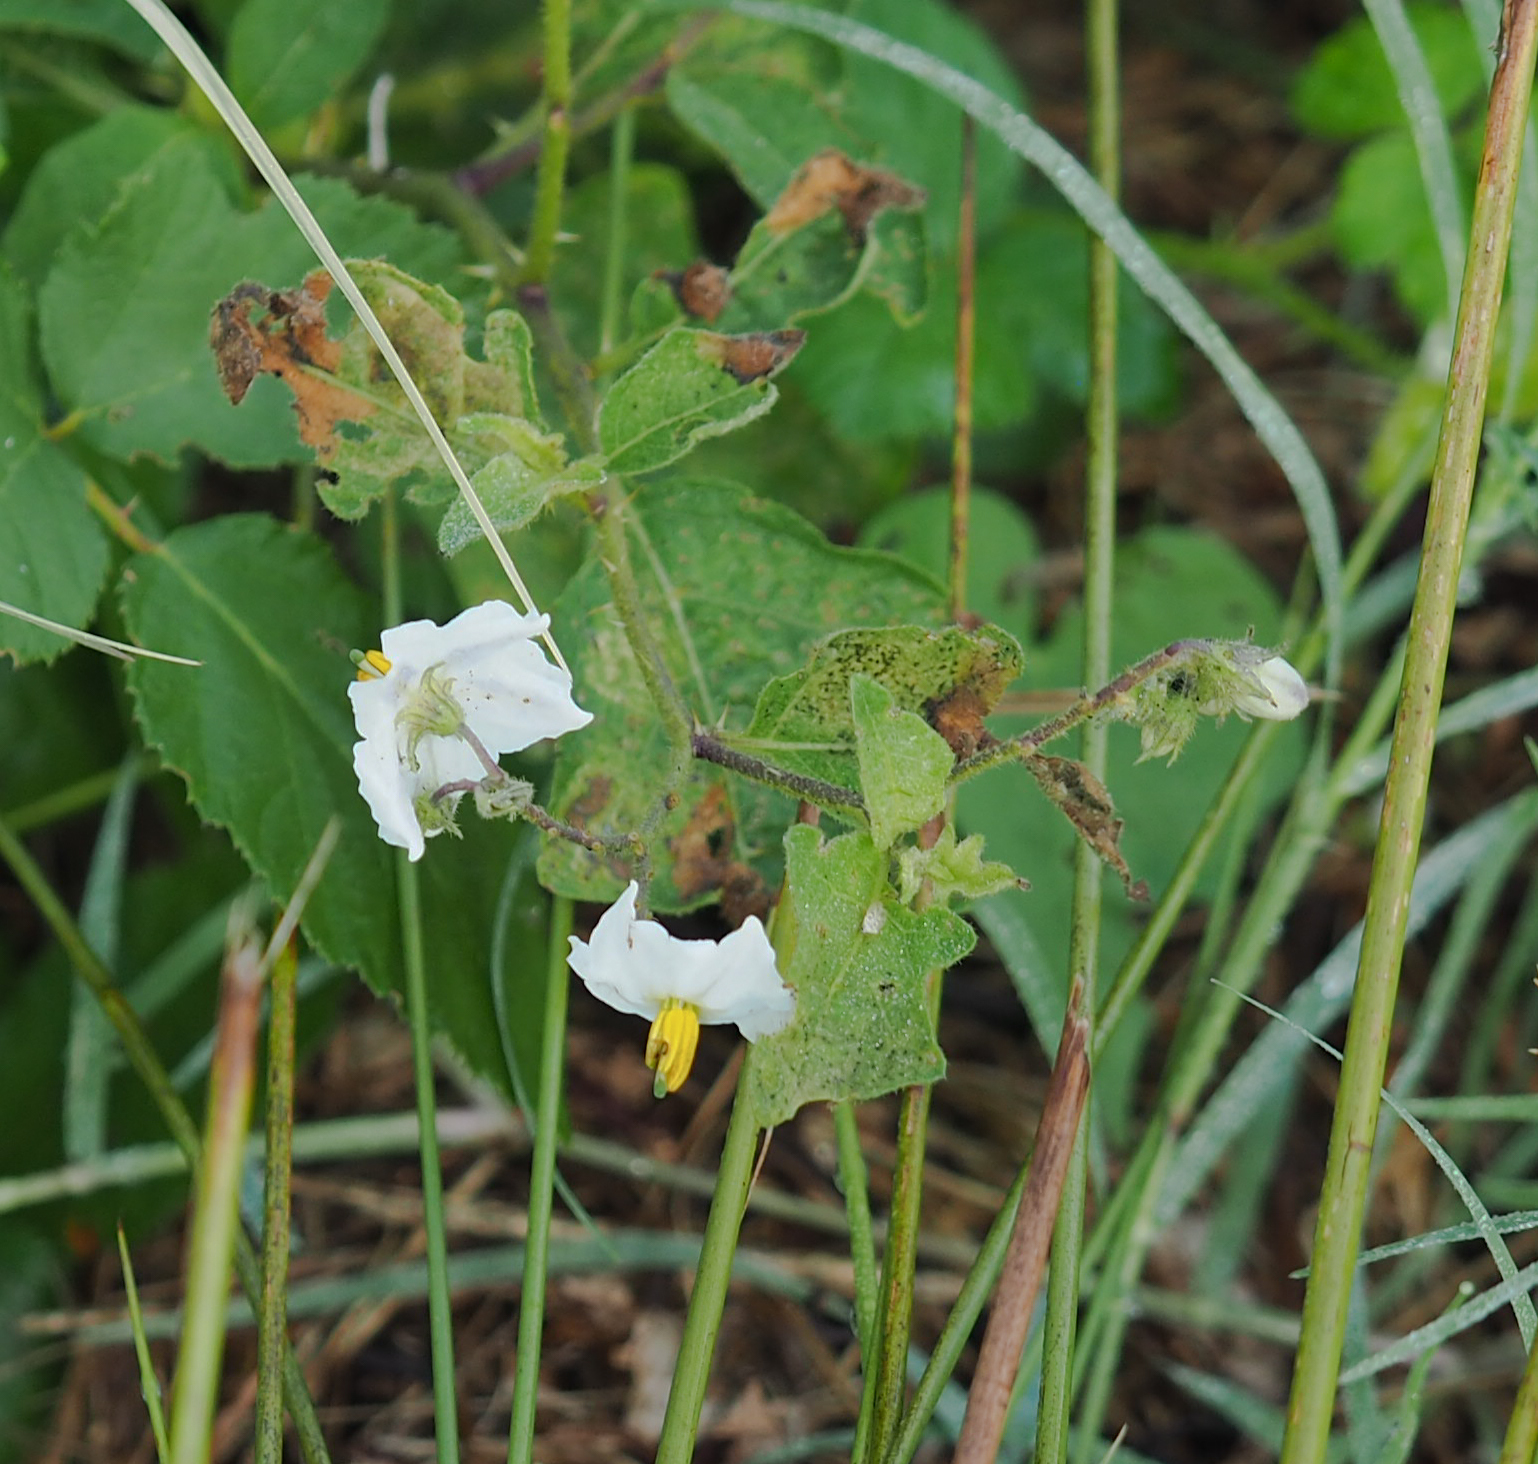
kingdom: Plantae
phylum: Tracheophyta
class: Magnoliopsida
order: Solanales
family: Solanaceae
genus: Solanum
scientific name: Solanum carolinense
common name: Horse-nettle
